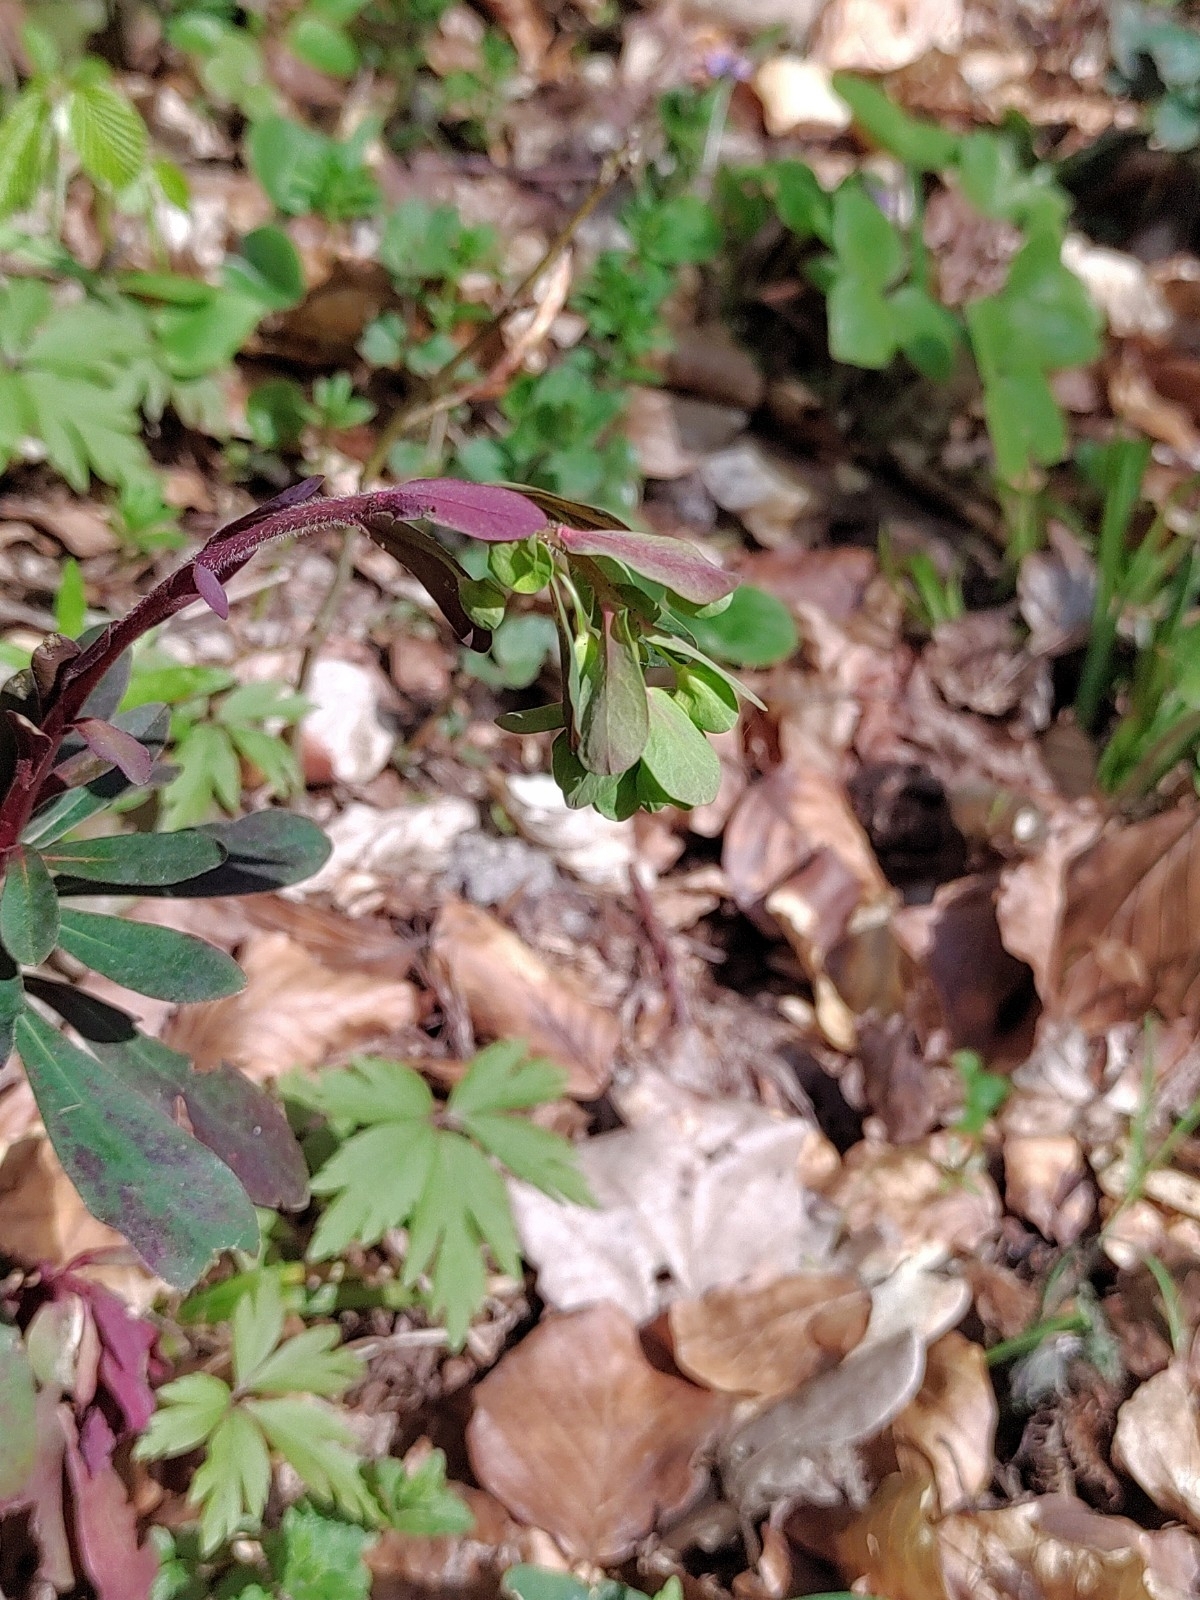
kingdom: Plantae
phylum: Tracheophyta
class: Magnoliopsida
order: Malpighiales
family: Euphorbiaceae
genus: Euphorbia
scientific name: Euphorbia amygdaloides
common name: Wood spurge
